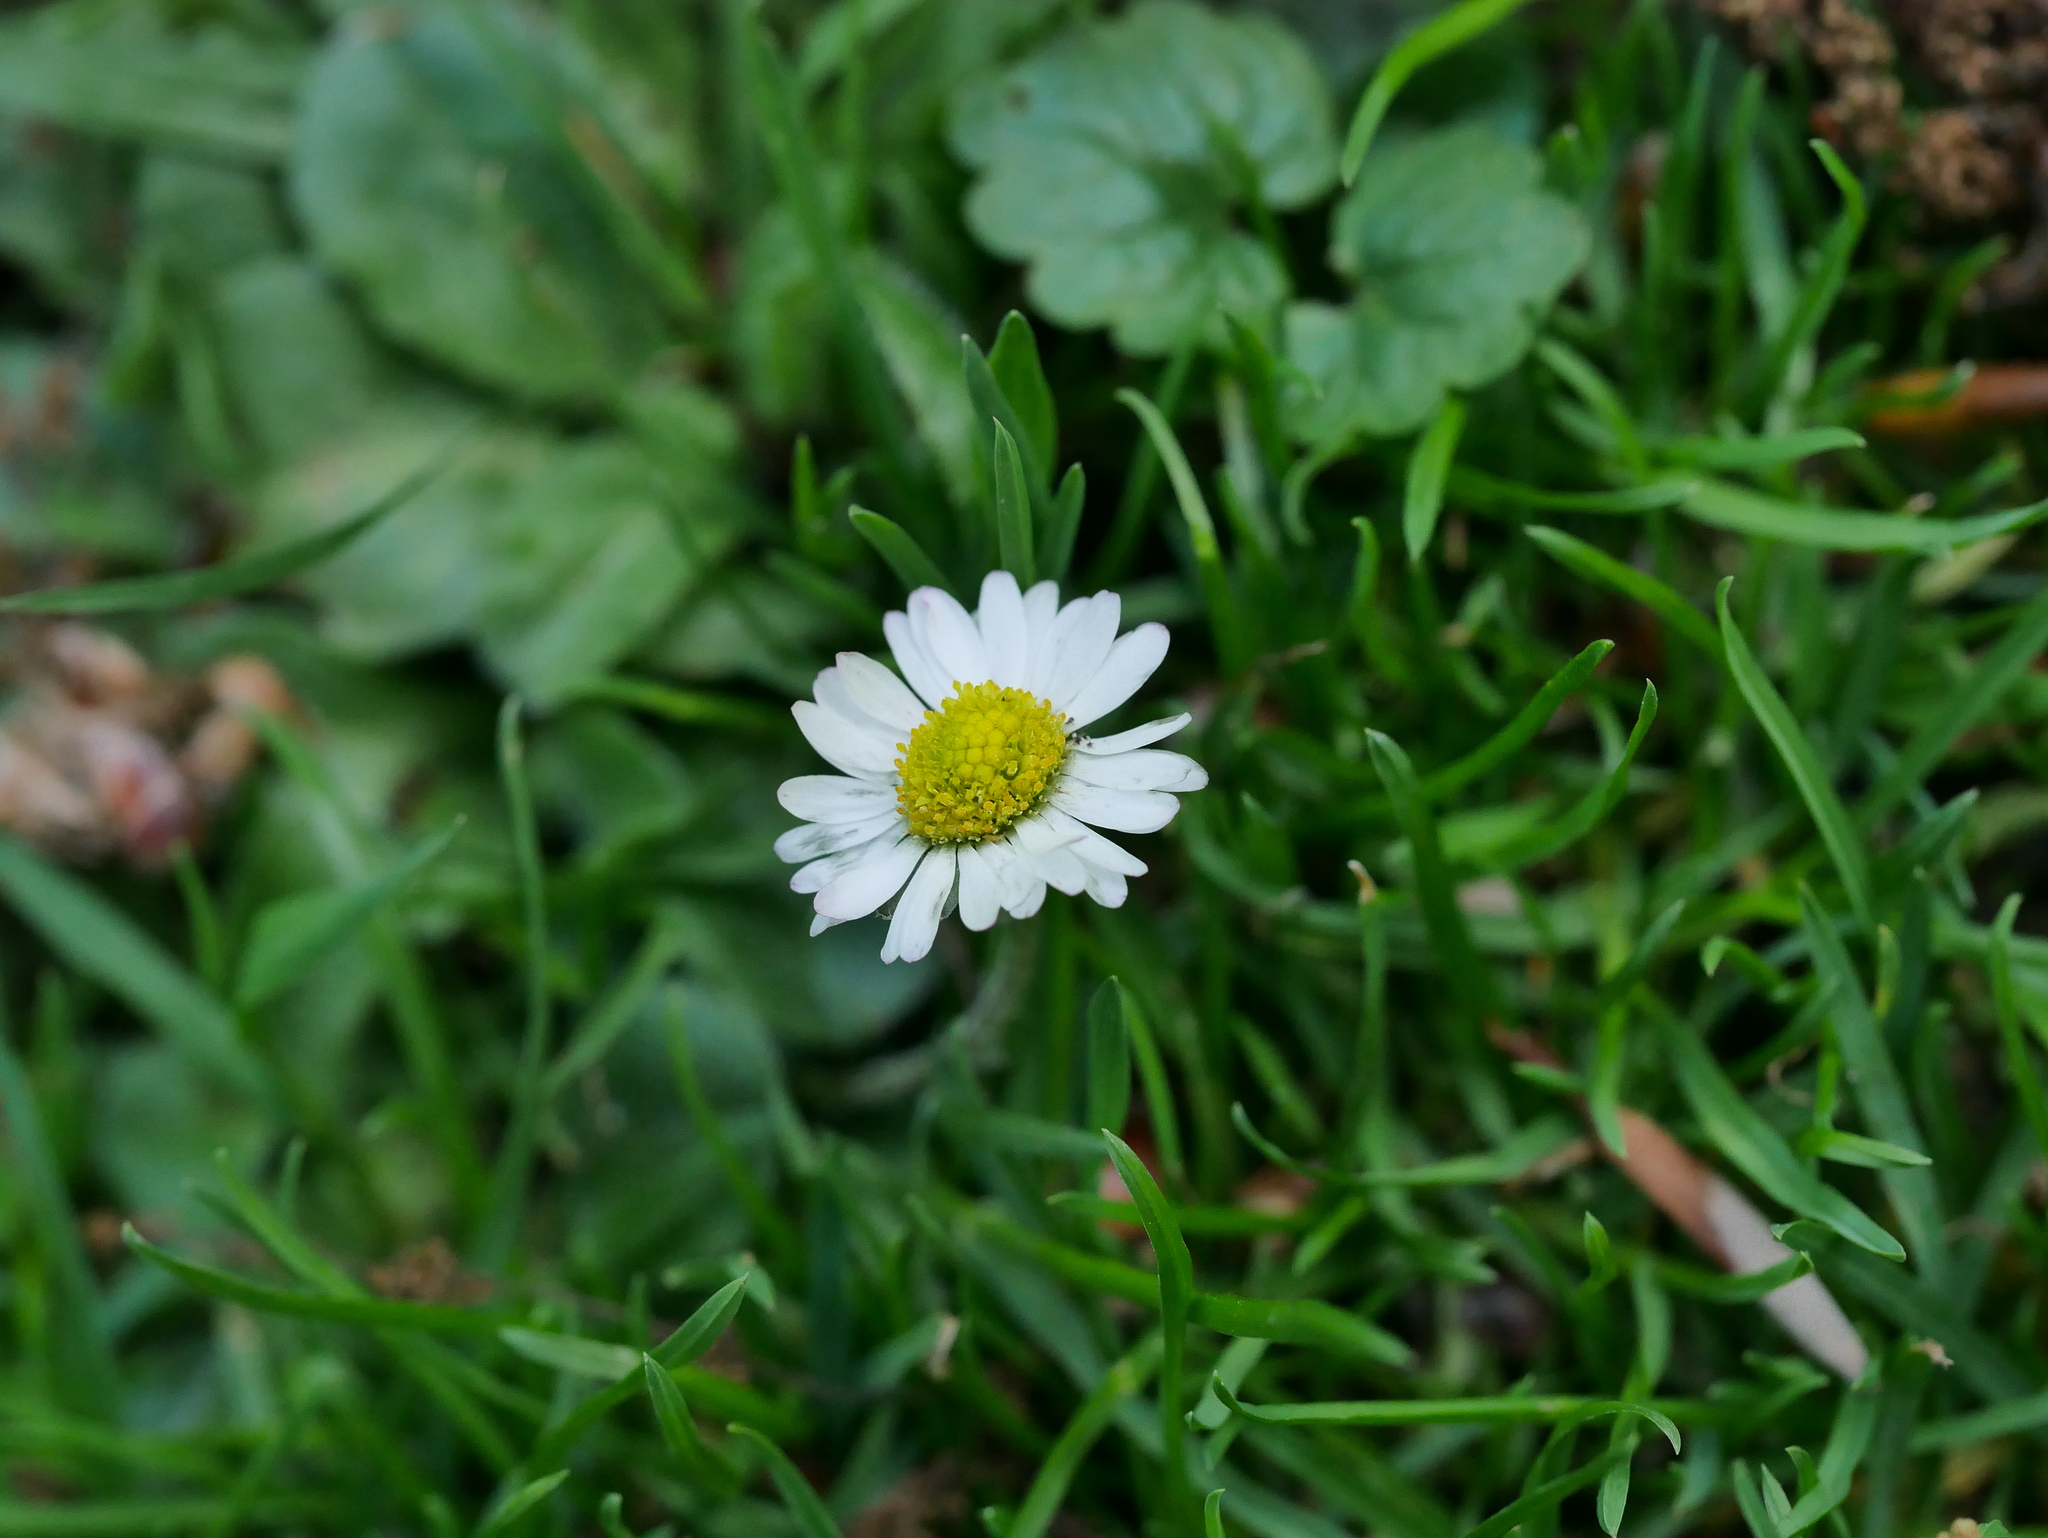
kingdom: Plantae
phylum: Tracheophyta
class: Magnoliopsida
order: Asterales
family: Asteraceae
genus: Bellis
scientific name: Bellis perennis
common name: Lawndaisy
